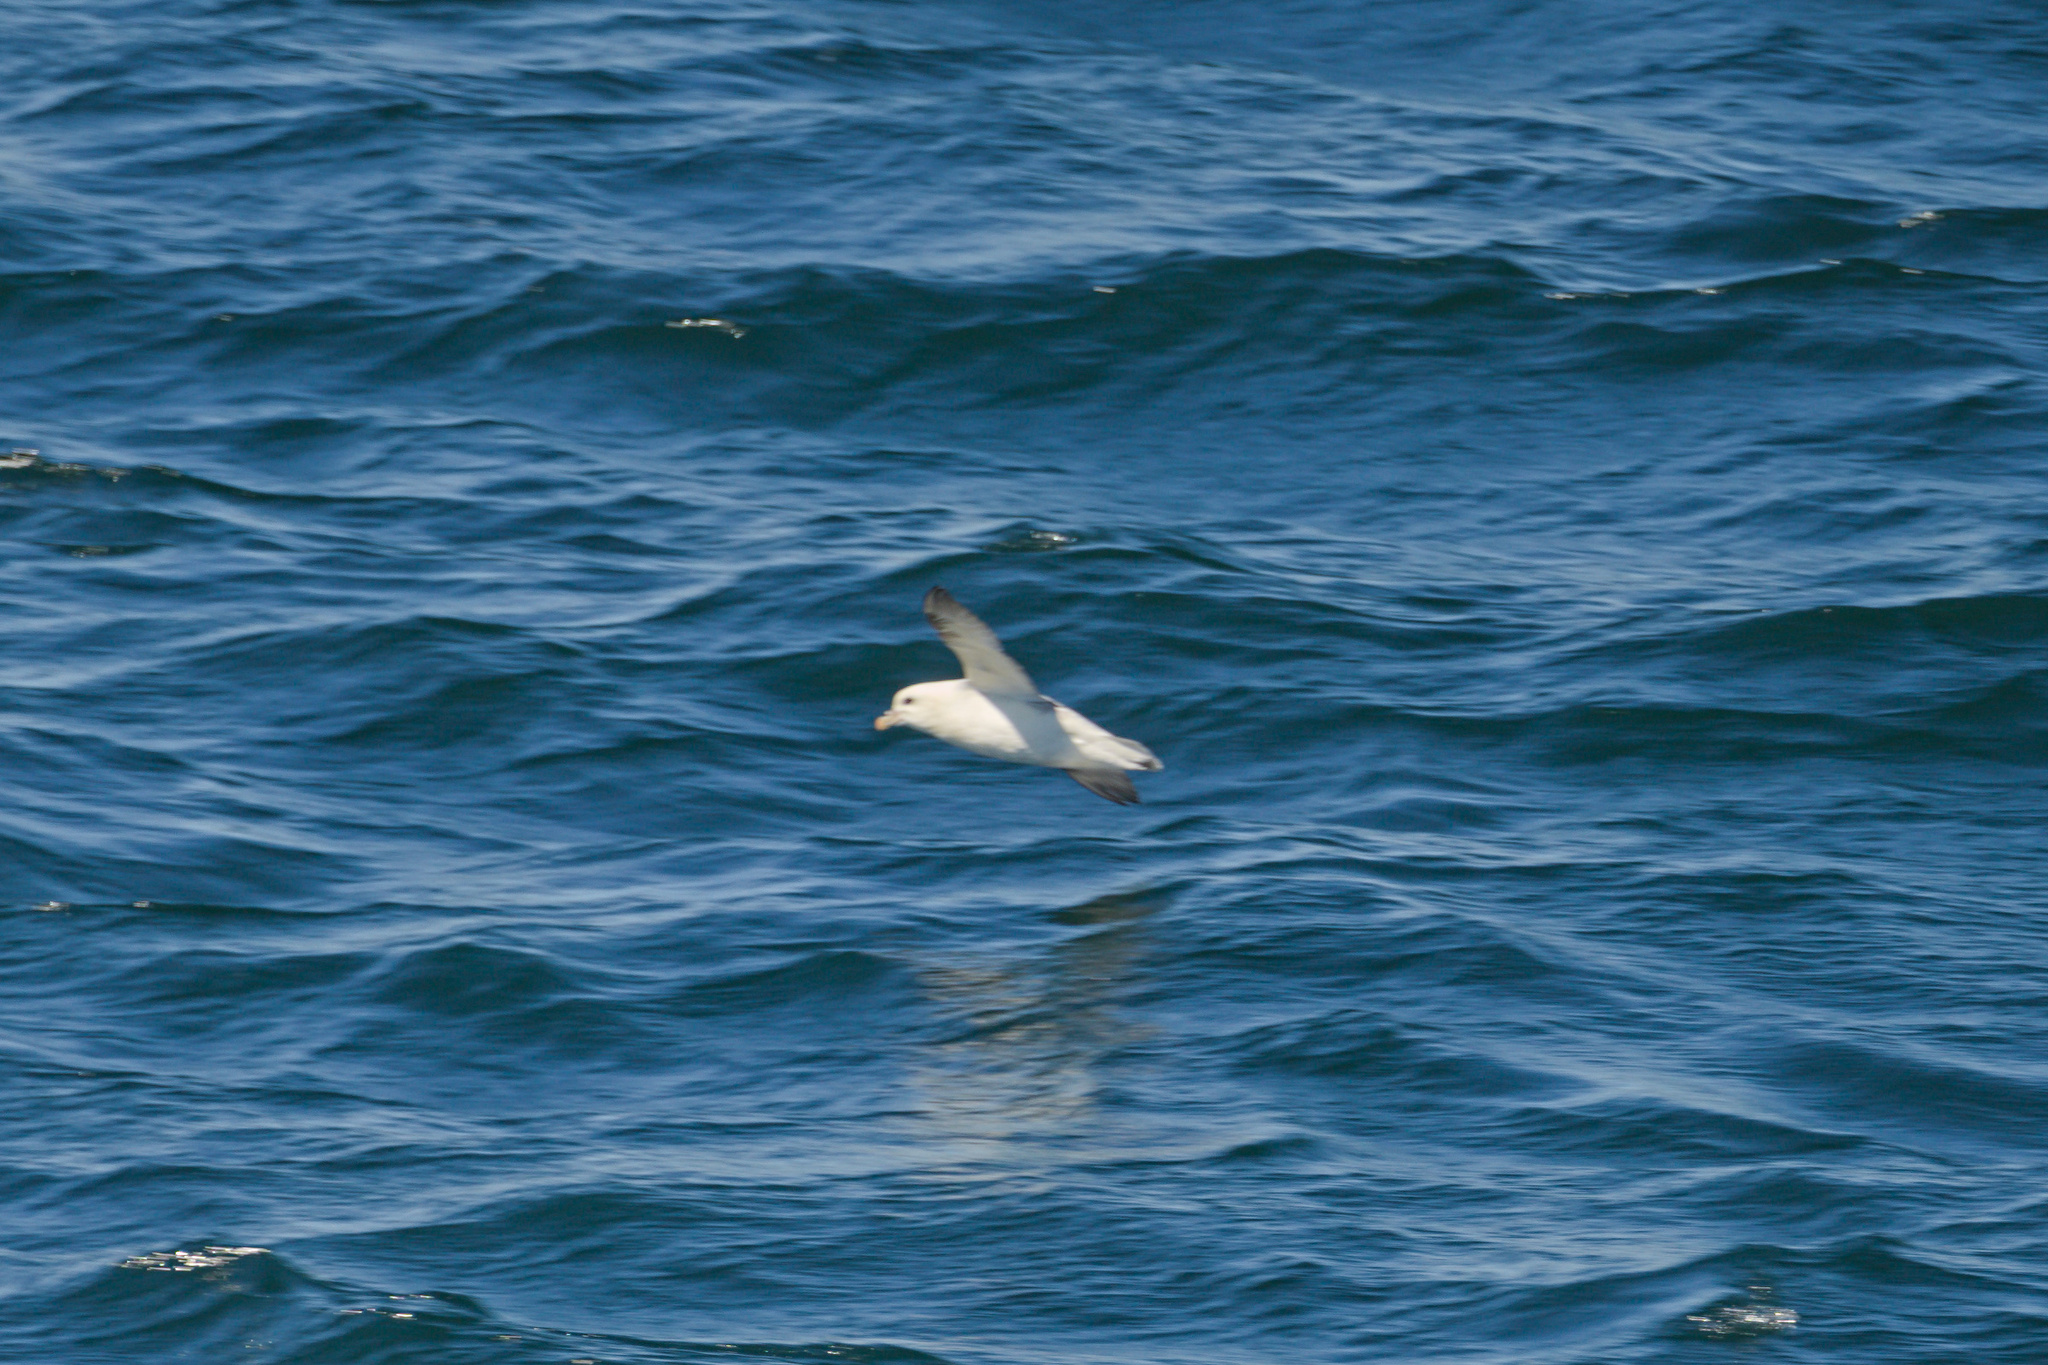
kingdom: Animalia
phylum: Chordata
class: Aves
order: Procellariiformes
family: Procellariidae
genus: Fulmarus
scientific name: Fulmarus glacialis
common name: Northern fulmar
